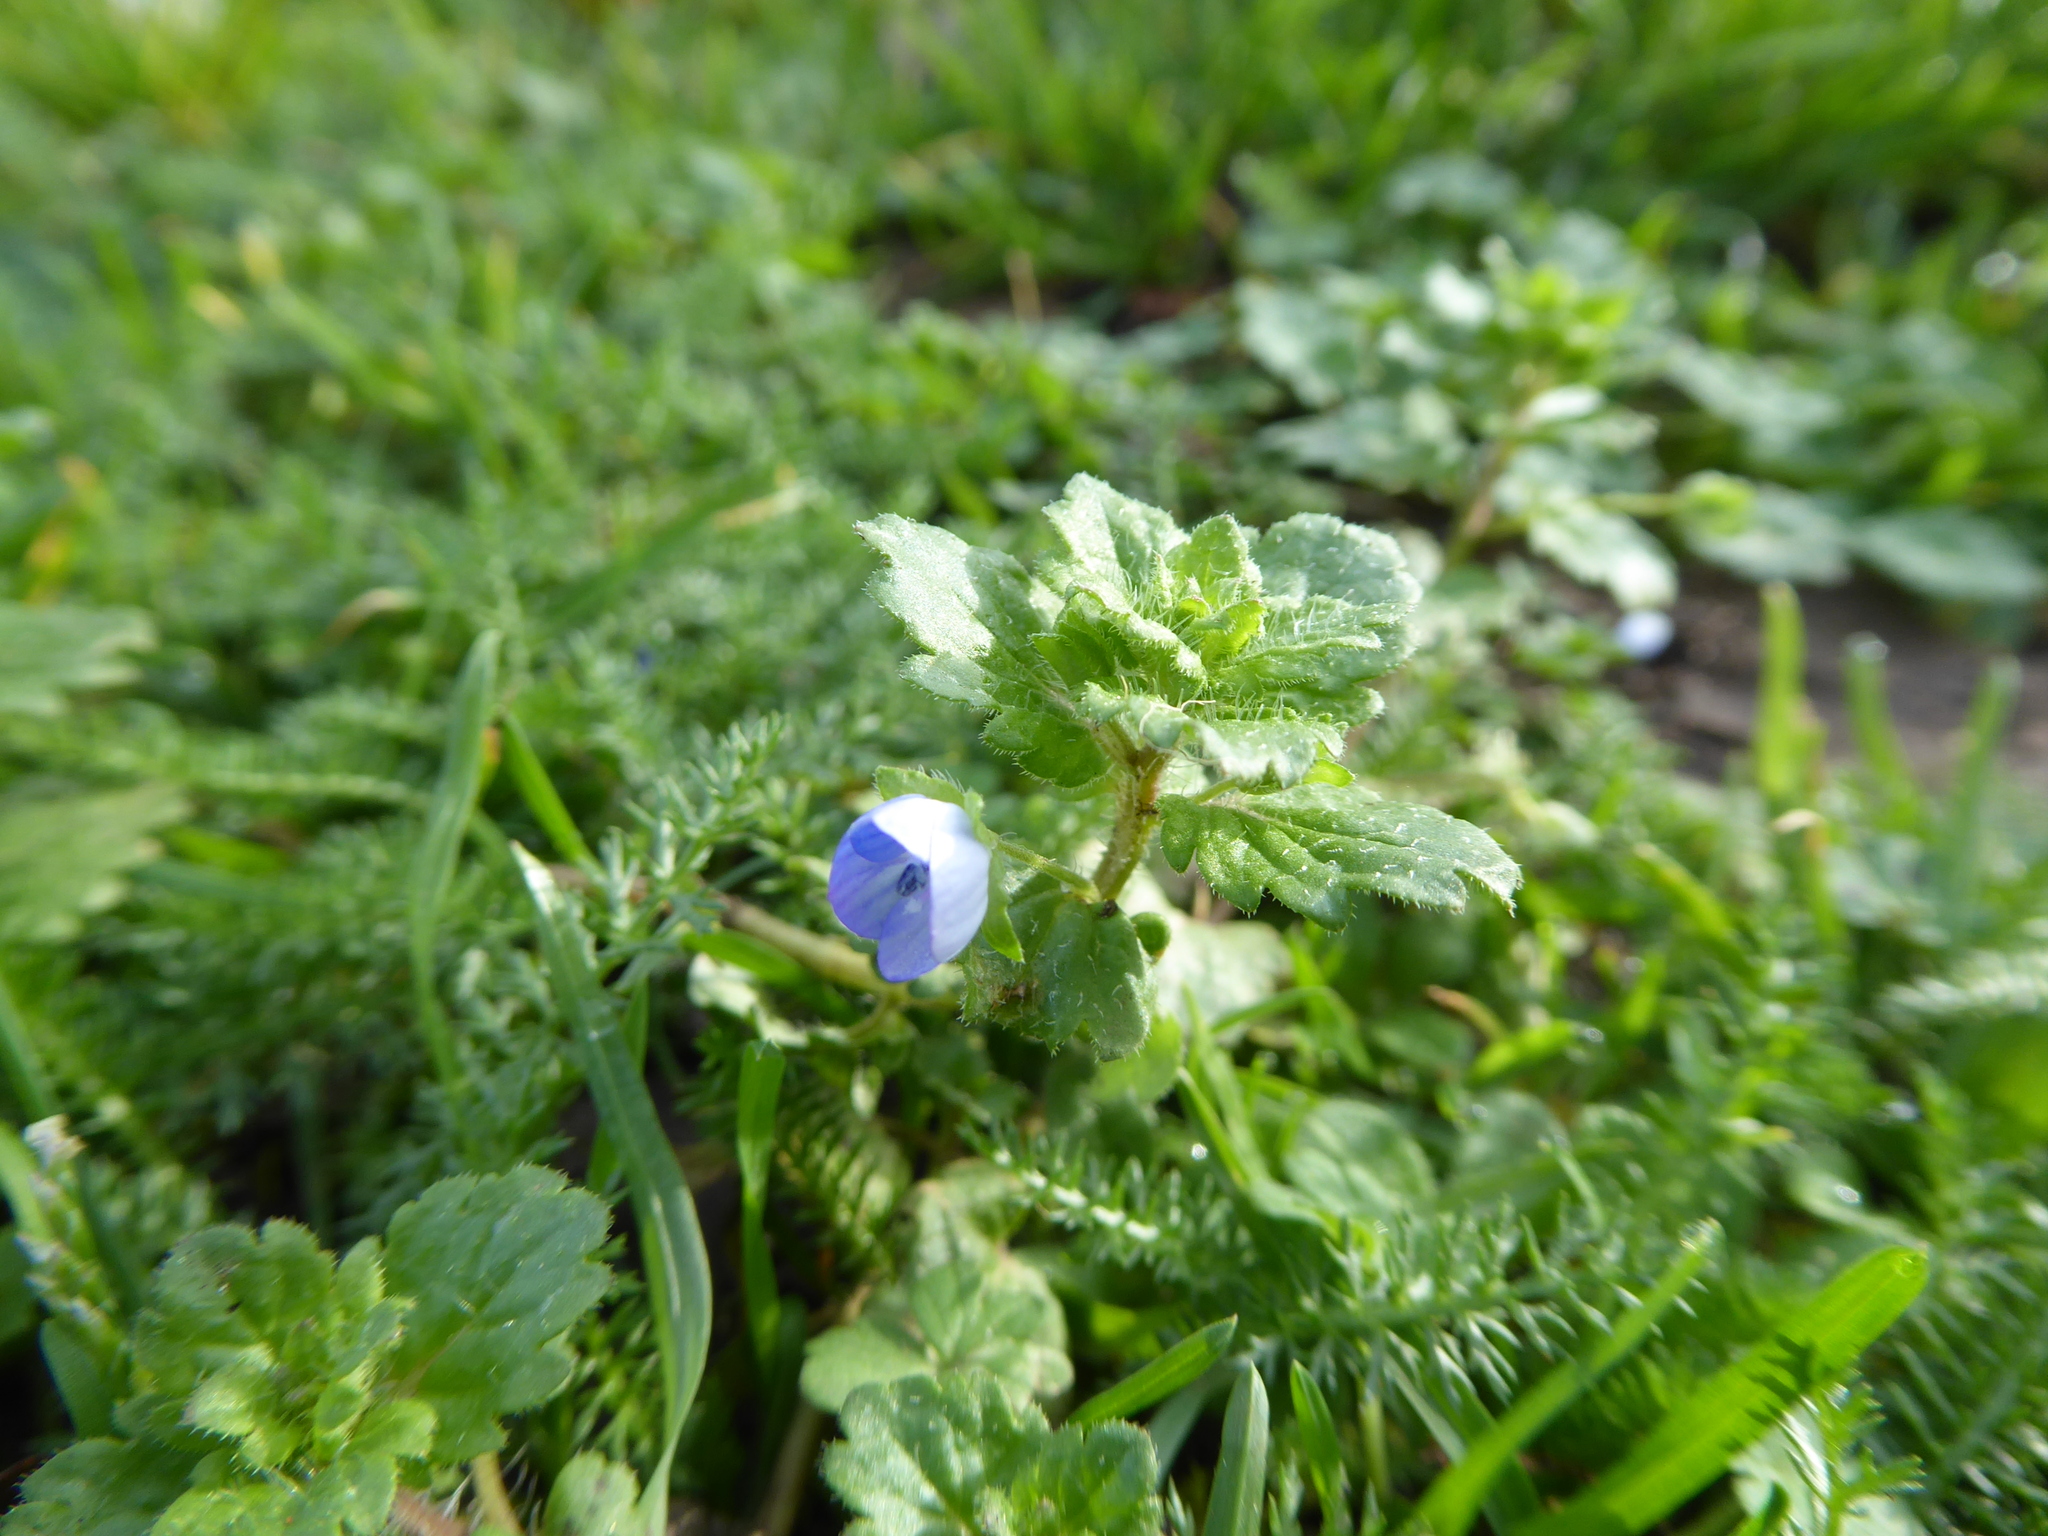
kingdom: Plantae
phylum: Tracheophyta
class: Magnoliopsida
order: Lamiales
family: Plantaginaceae
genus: Veronica
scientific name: Veronica persica
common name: Common field-speedwell
